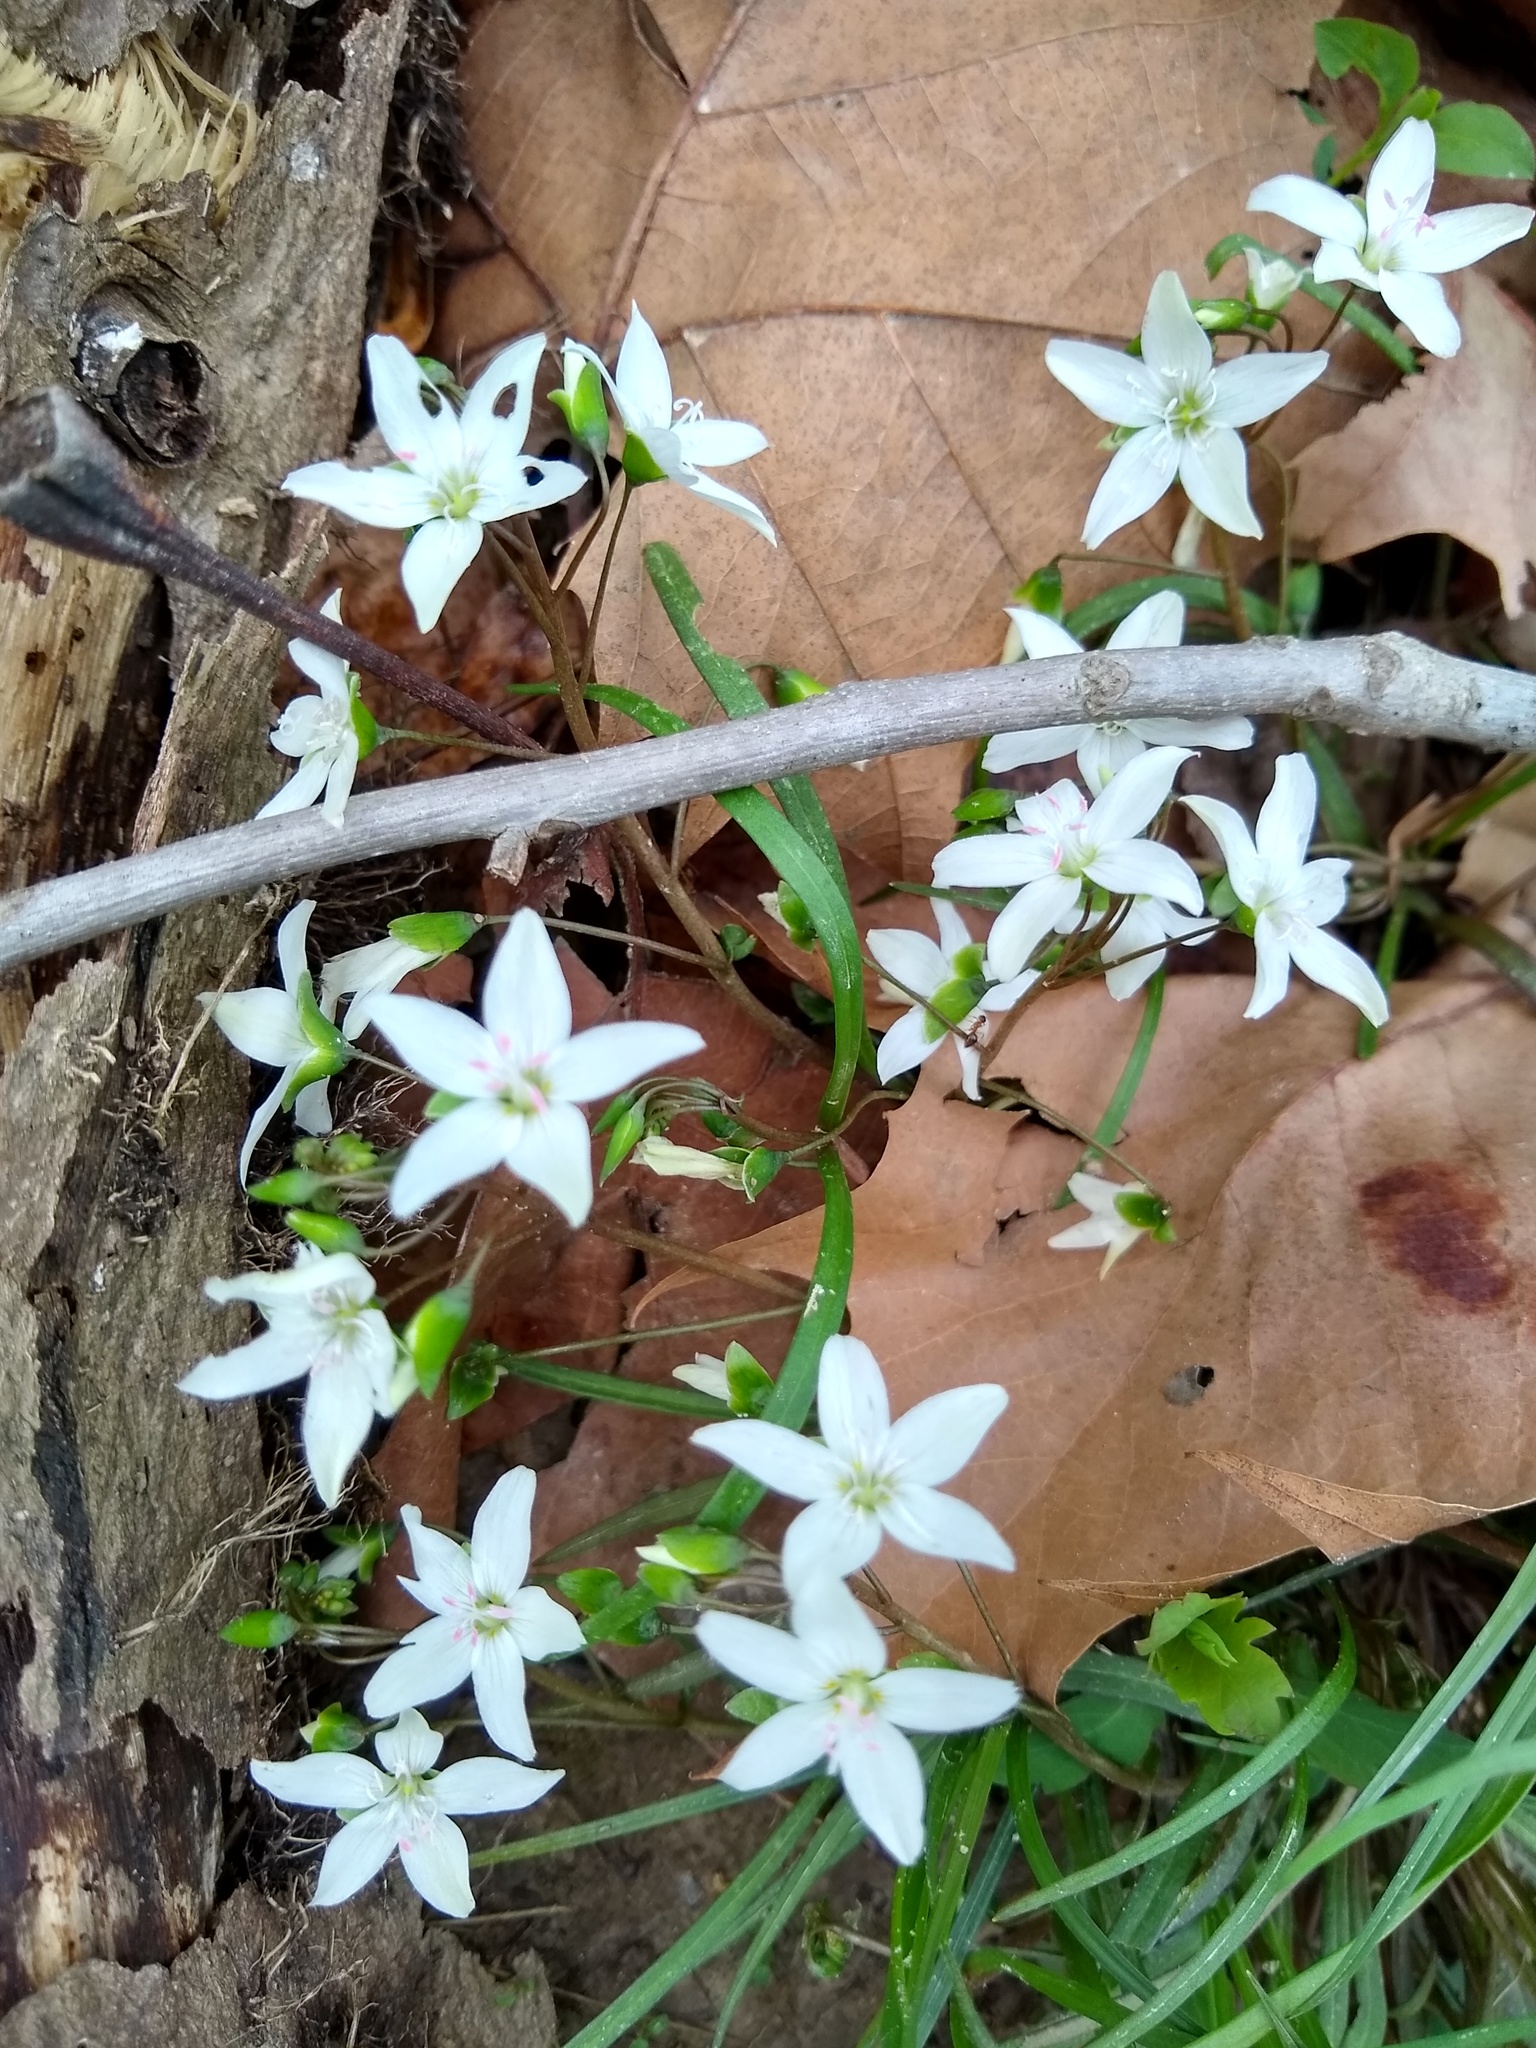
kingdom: Plantae
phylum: Tracheophyta
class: Magnoliopsida
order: Caryophyllales
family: Montiaceae
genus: Claytonia
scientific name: Claytonia virginica
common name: Virginia springbeauty
